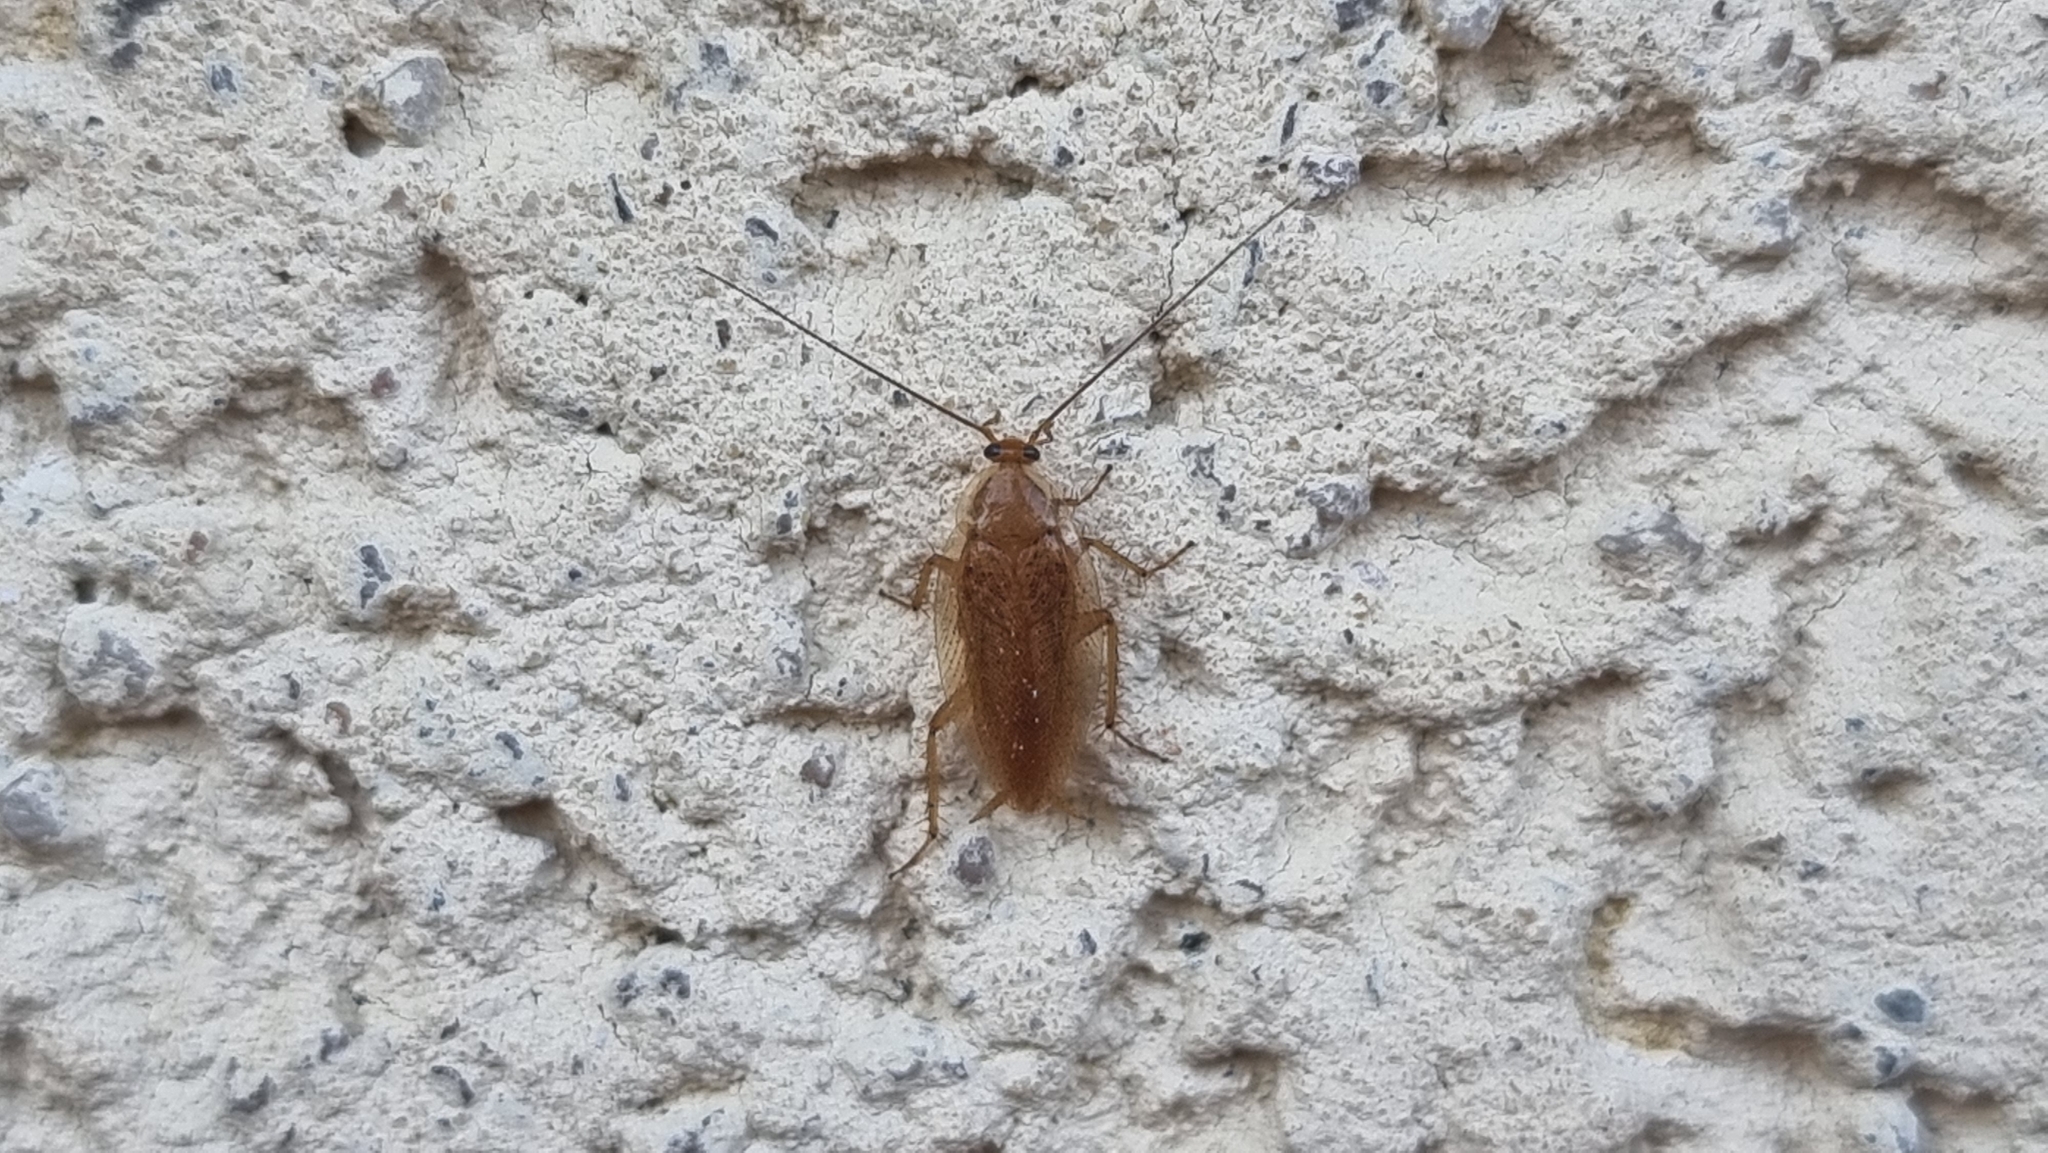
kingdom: Animalia
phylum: Arthropoda
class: Insecta
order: Blattodea
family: Ectobiidae
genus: Ectobius
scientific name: Ectobius pallidus
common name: Tawny cockroach
